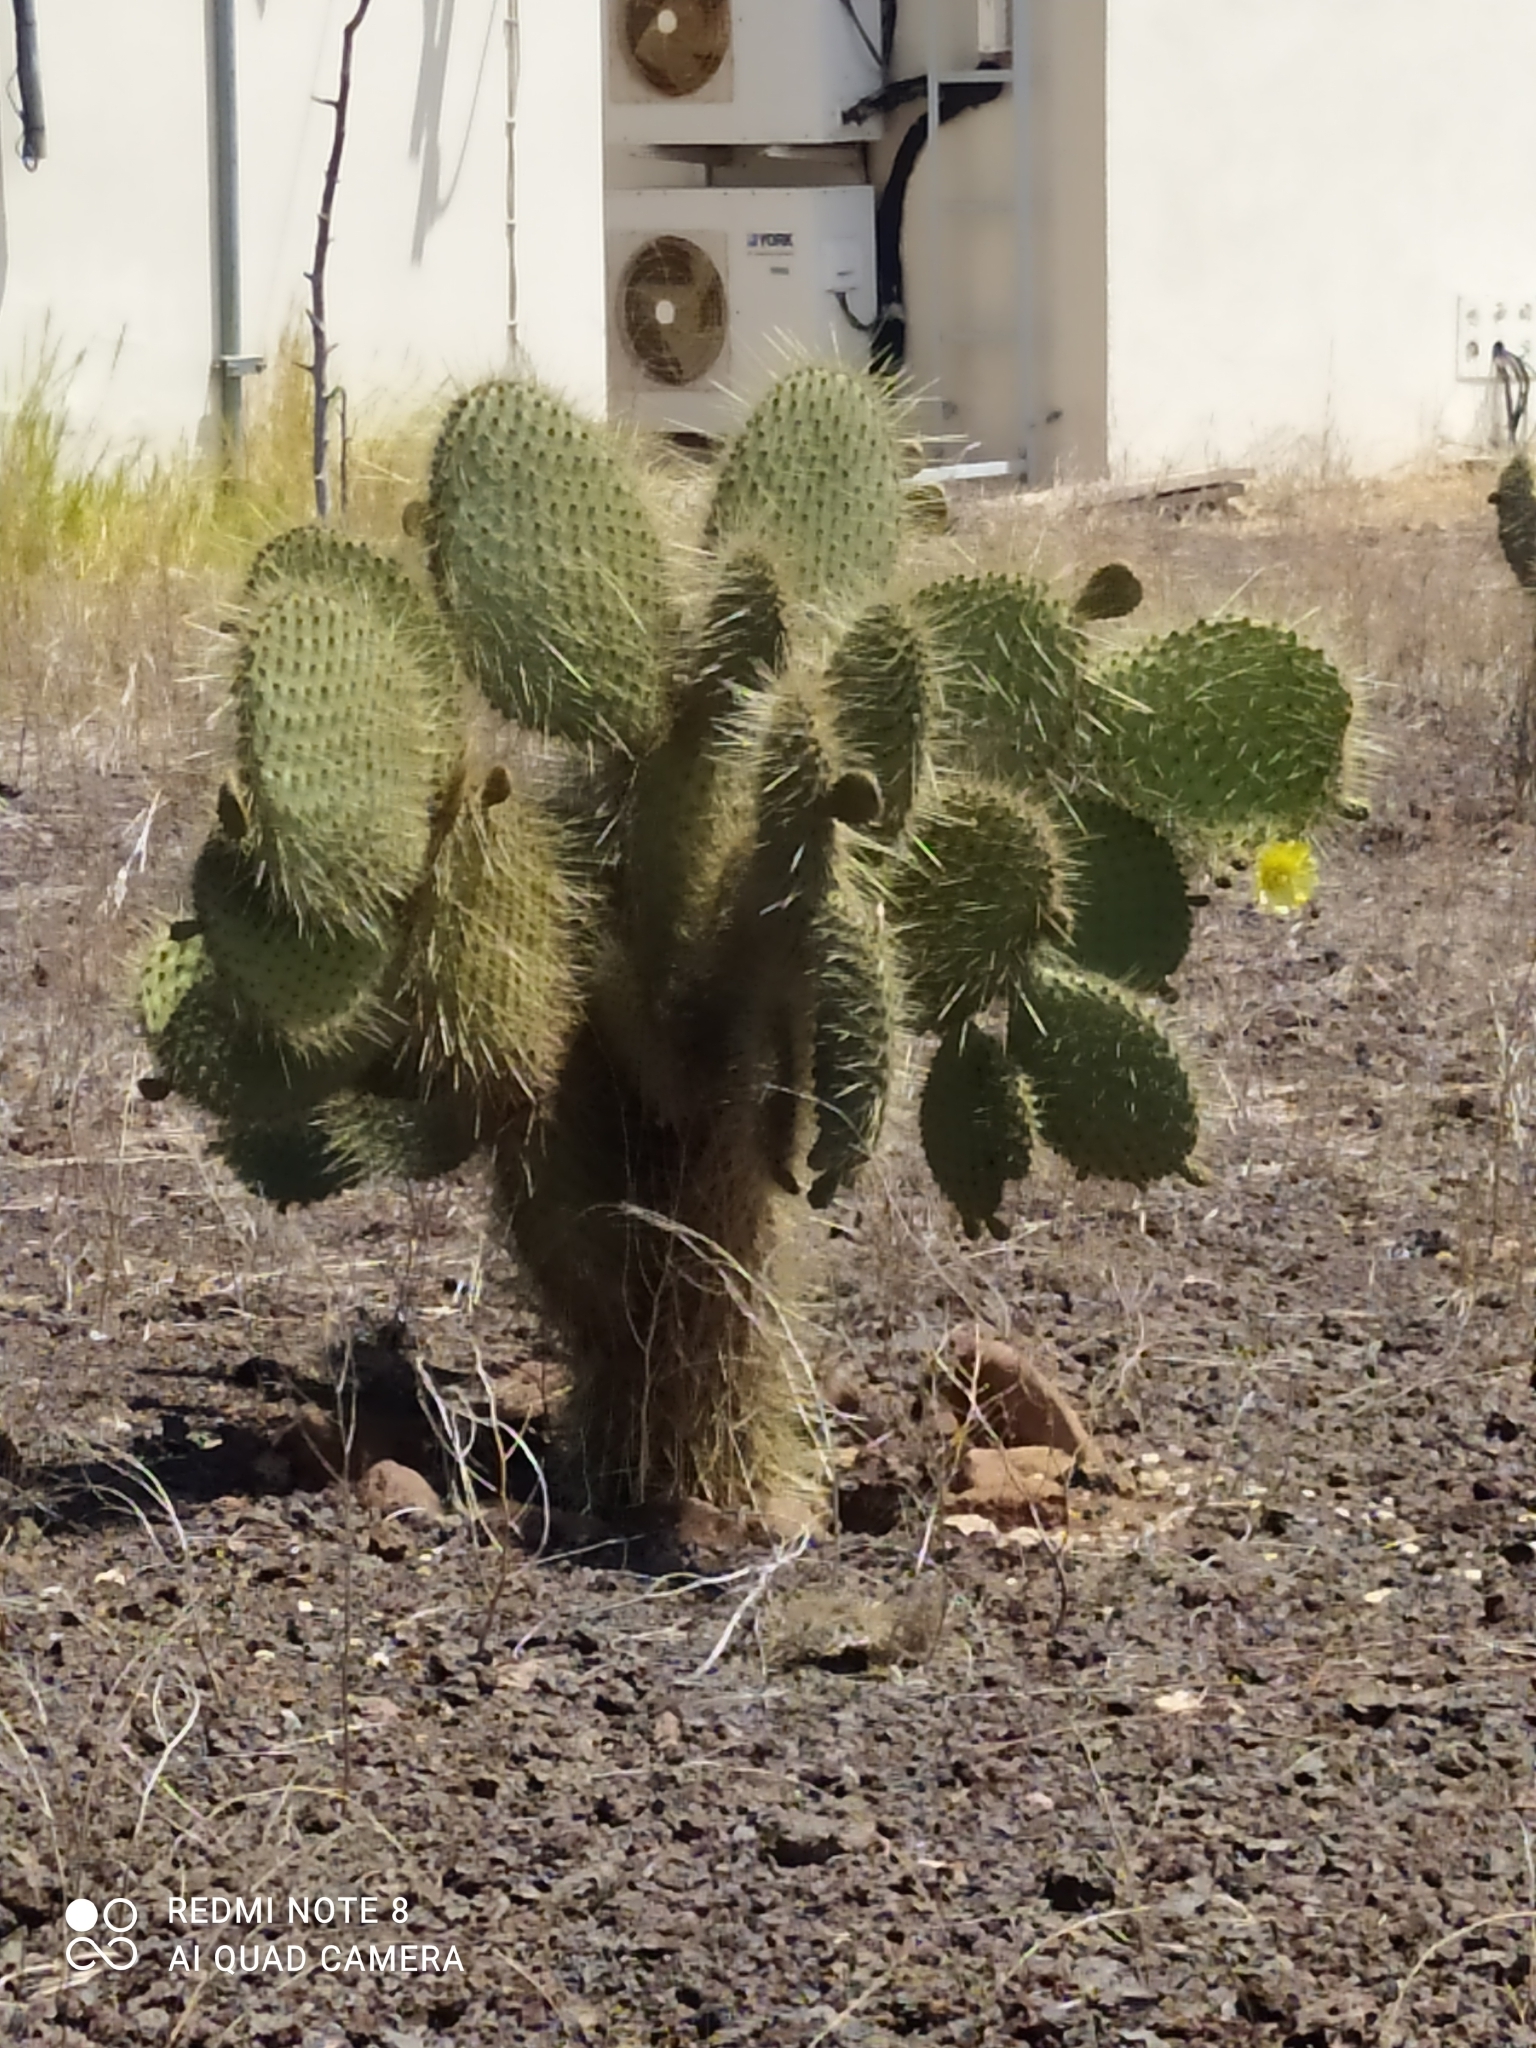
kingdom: Plantae
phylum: Tracheophyta
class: Magnoliopsida
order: Caryophyllales
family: Cactaceae
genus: Opuntia
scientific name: Opuntia galapageia
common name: Galápagos prickly pear
